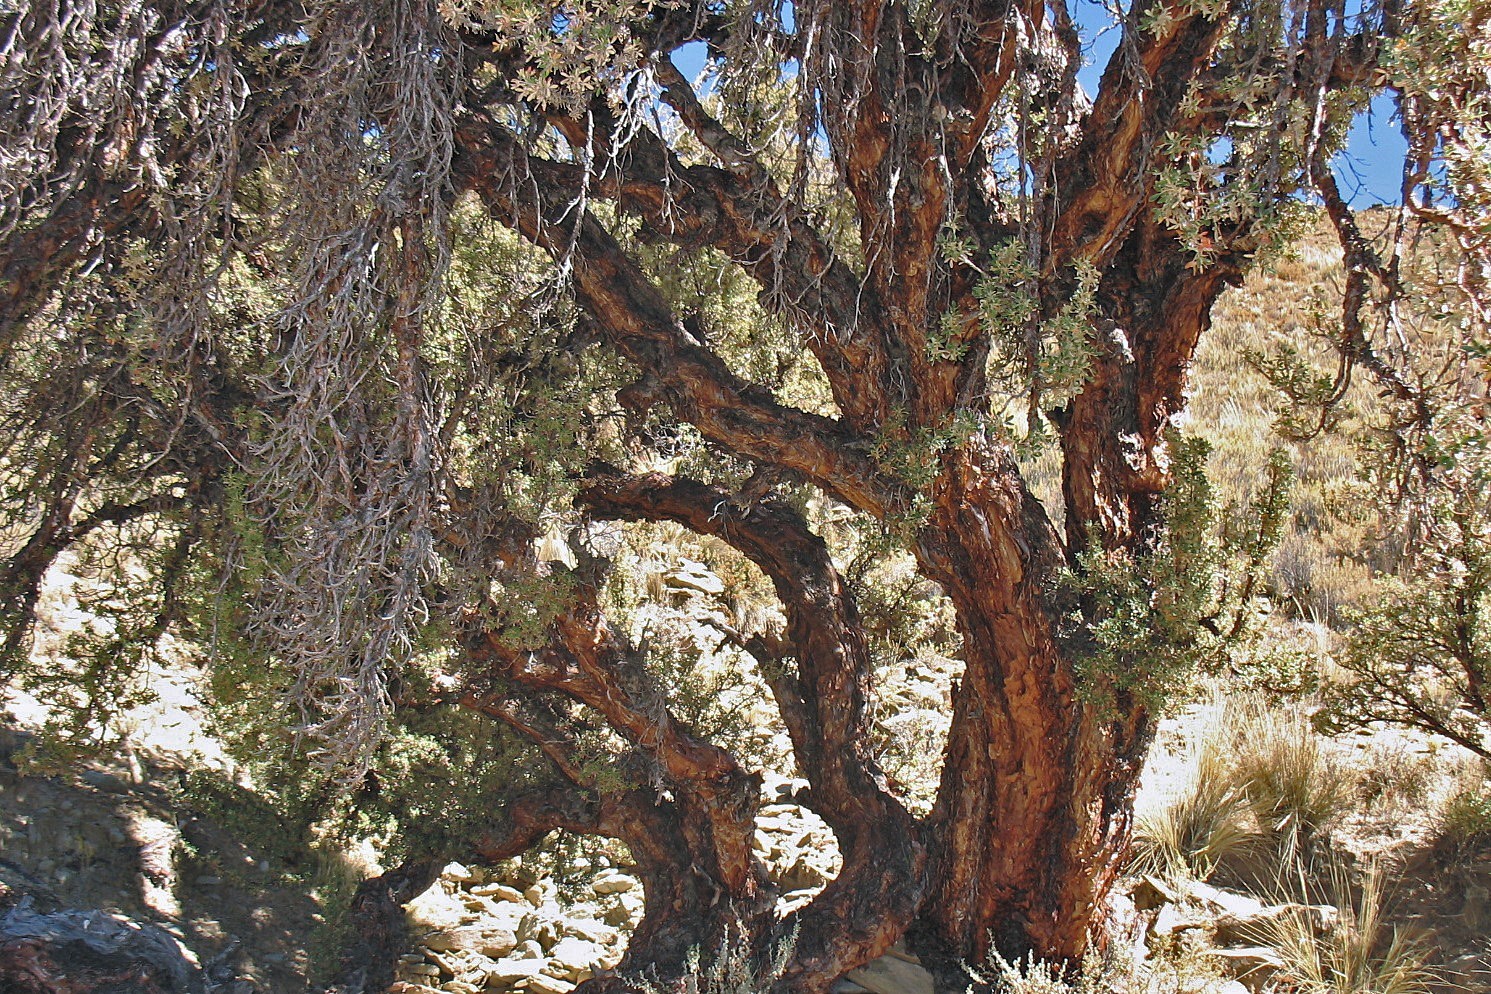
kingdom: Plantae
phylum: Tracheophyta
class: Magnoliopsida
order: Rosales
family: Rosaceae
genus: Polylepis
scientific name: Polylepis tomentella
